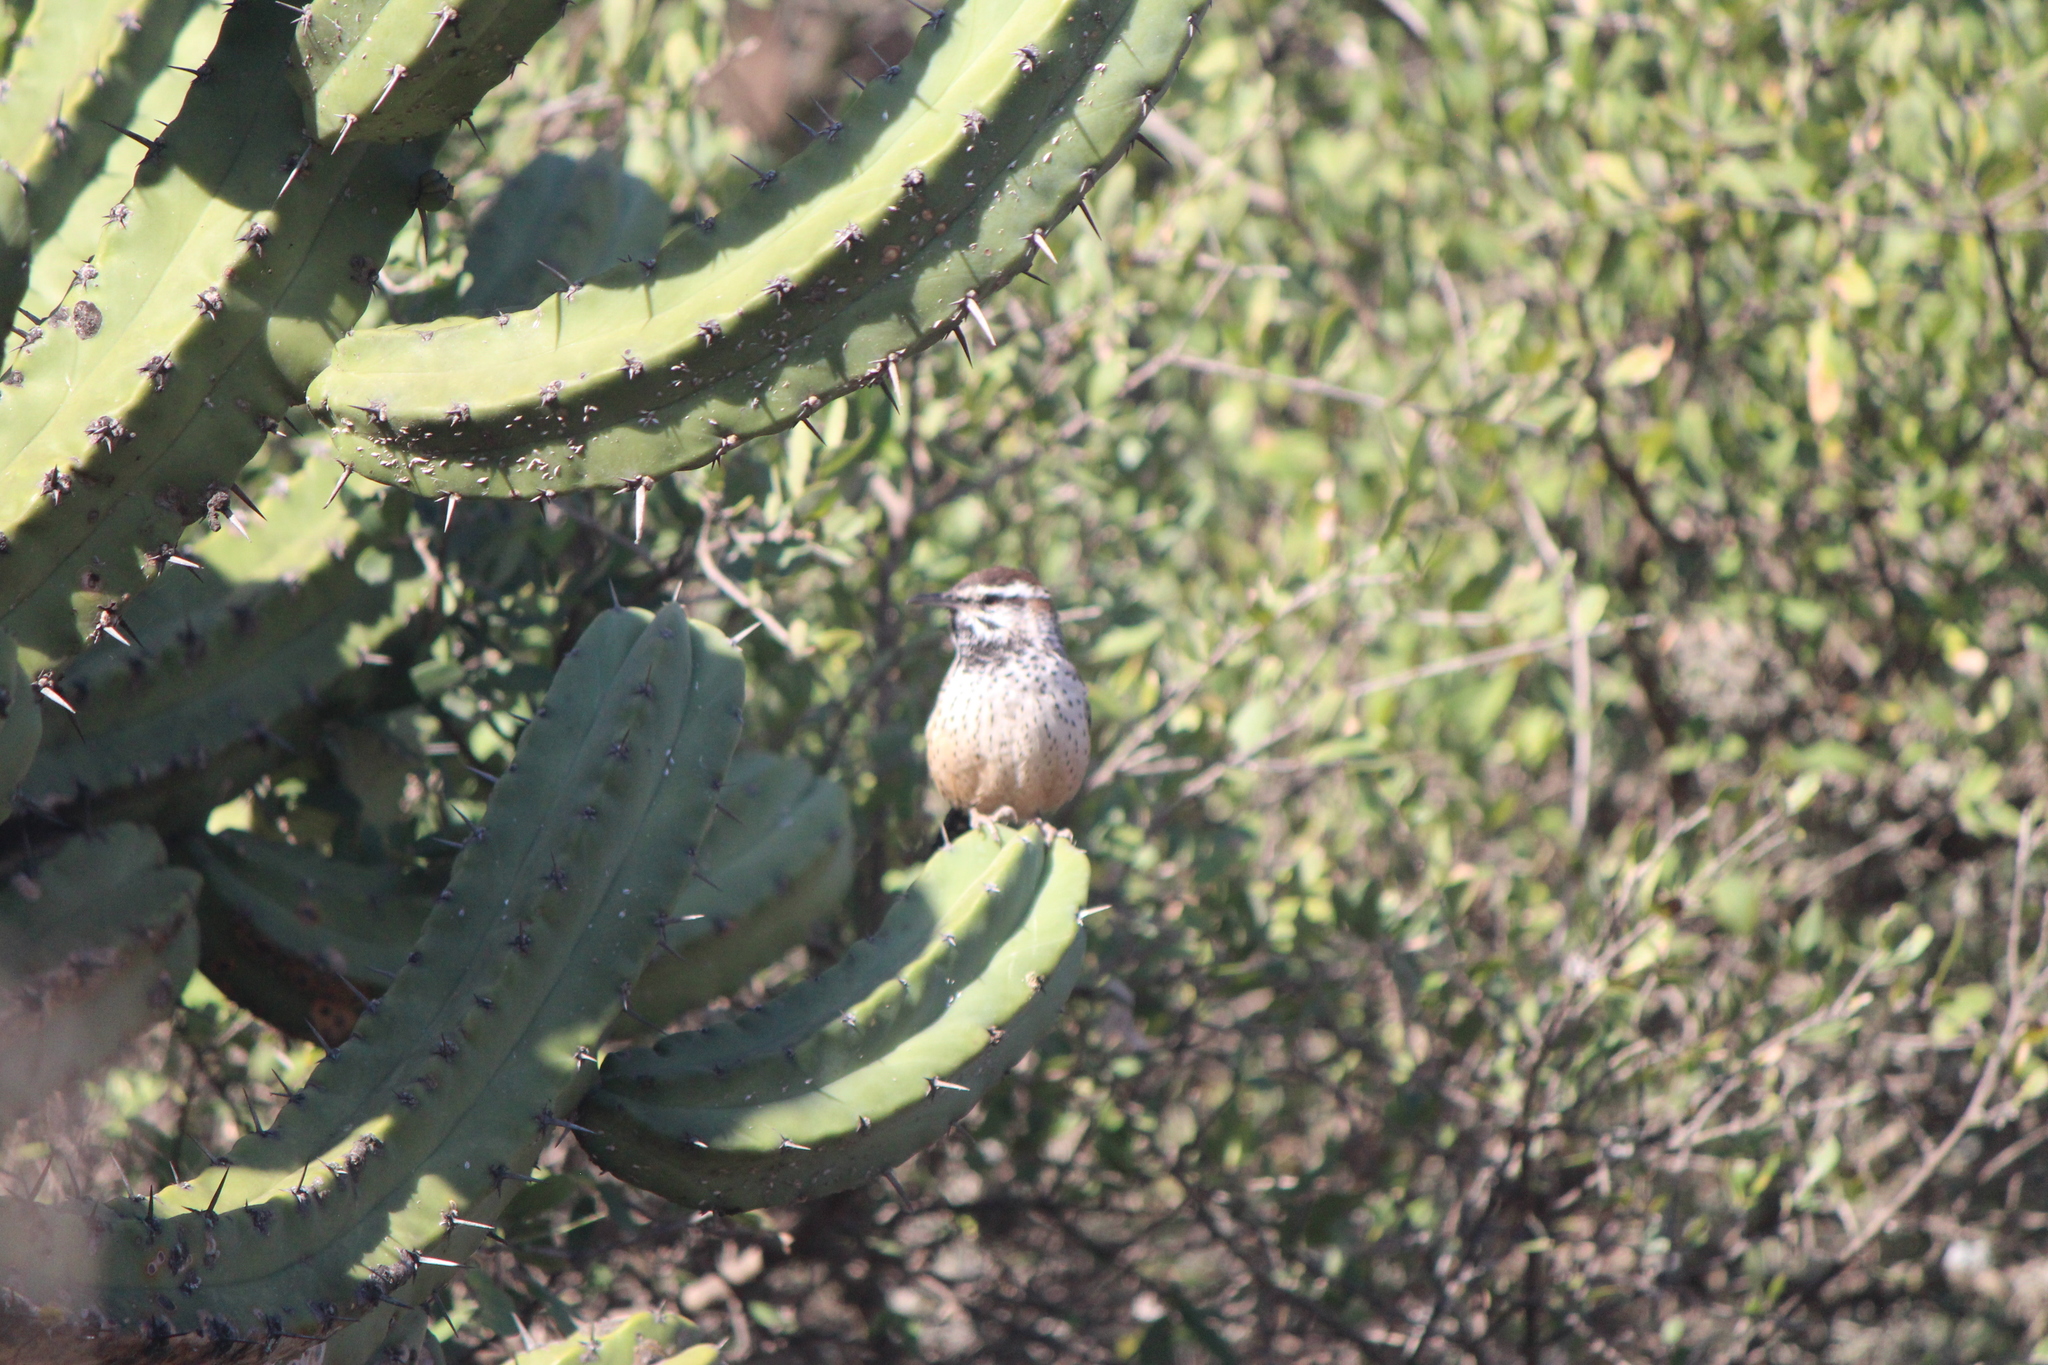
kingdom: Animalia
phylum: Chordata
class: Aves
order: Passeriformes
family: Troglodytidae
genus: Campylorhynchus
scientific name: Campylorhynchus brunneicapillus
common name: Cactus wren
